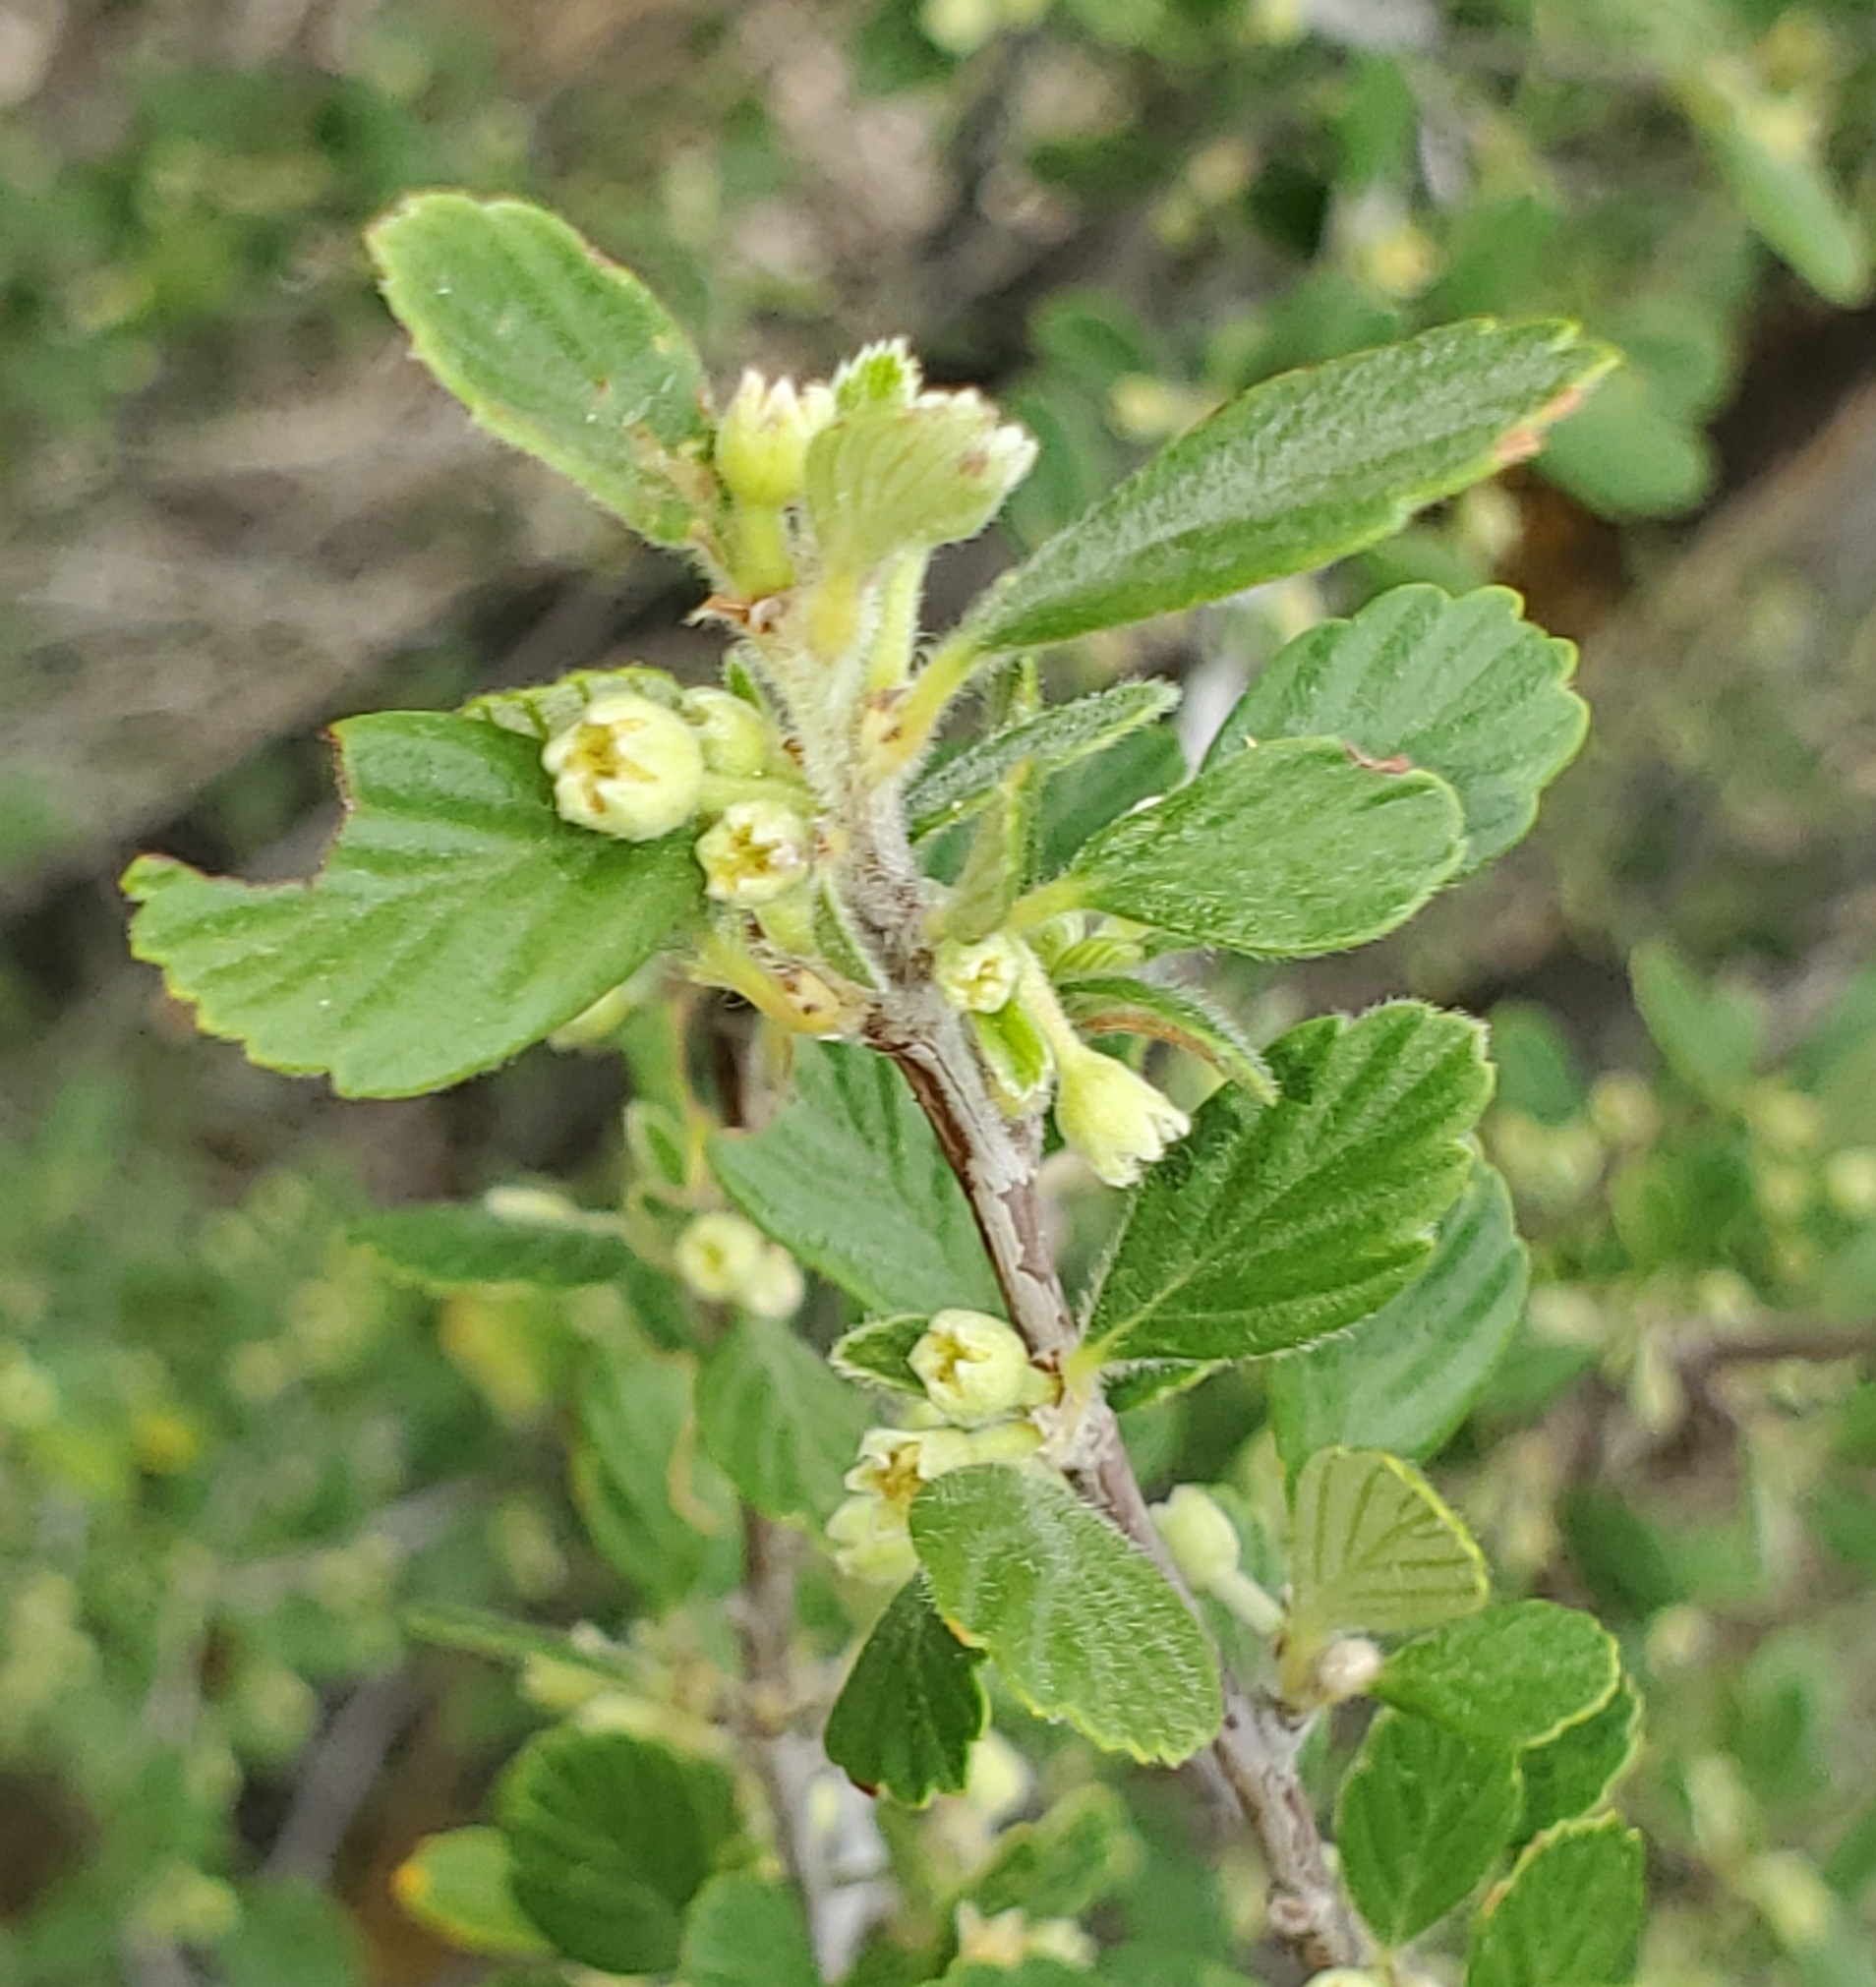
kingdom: Plantae
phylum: Tracheophyta
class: Magnoliopsida
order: Rosales
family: Rosaceae
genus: Cercocarpus
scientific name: Cercocarpus montanus
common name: Alder-leaf cercocarpus
